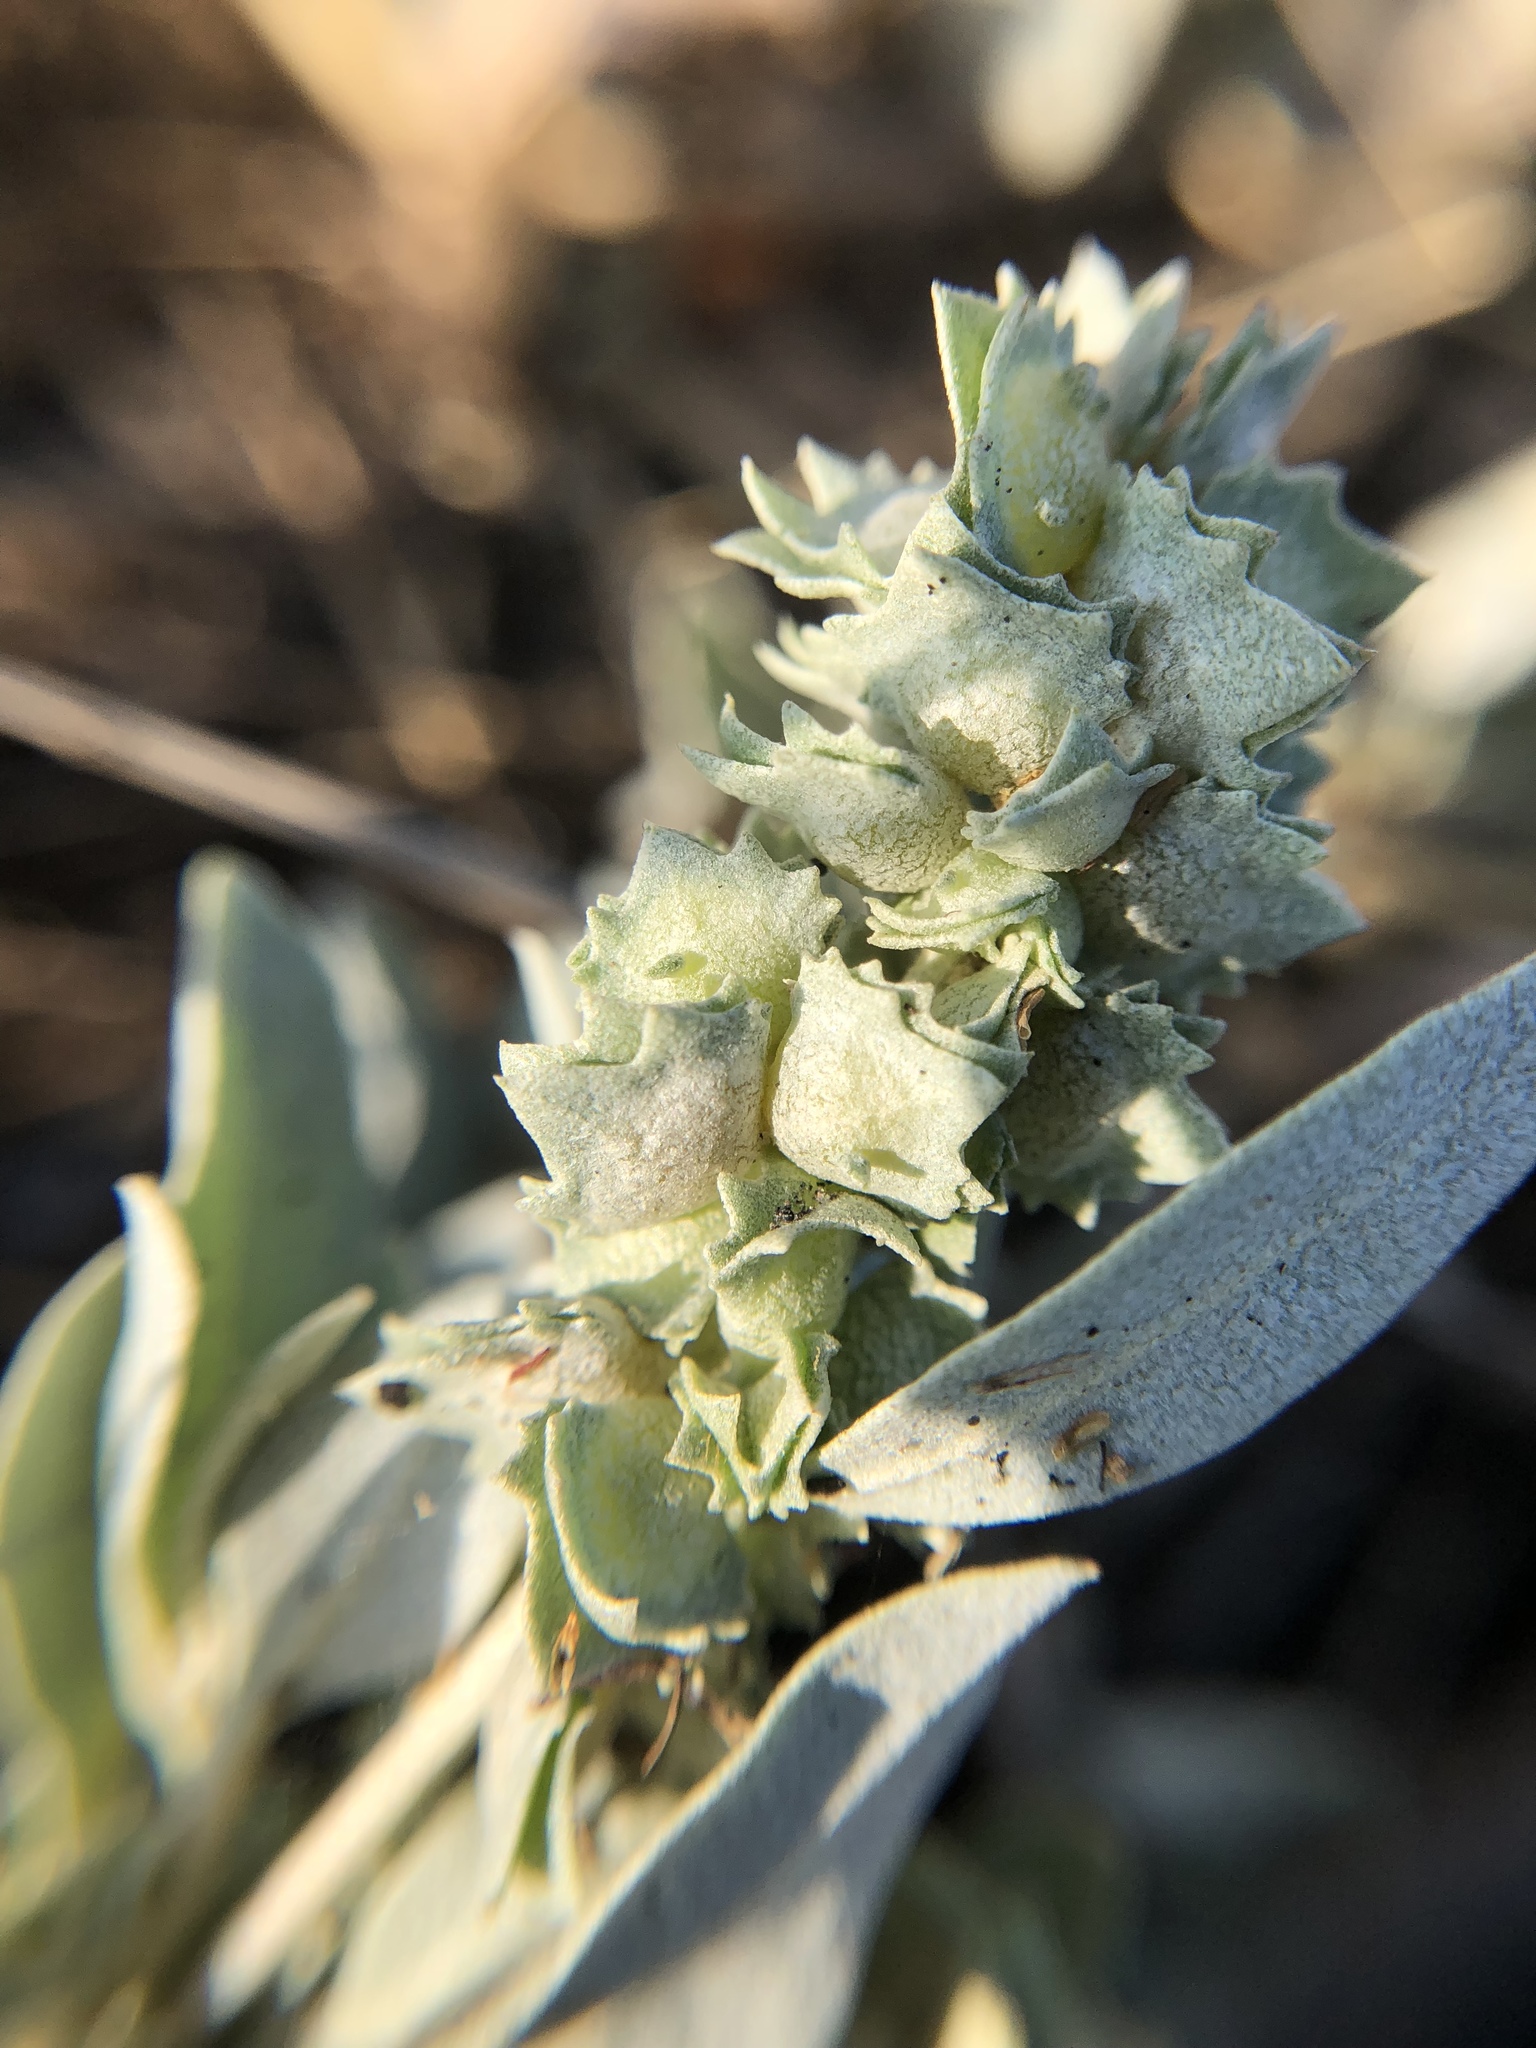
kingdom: Plantae
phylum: Tracheophyta
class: Magnoliopsida
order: Caryophyllales
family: Amaranthaceae
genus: Atriplex
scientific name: Atriplex maximowicziana
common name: Maximowicz's saltbush
